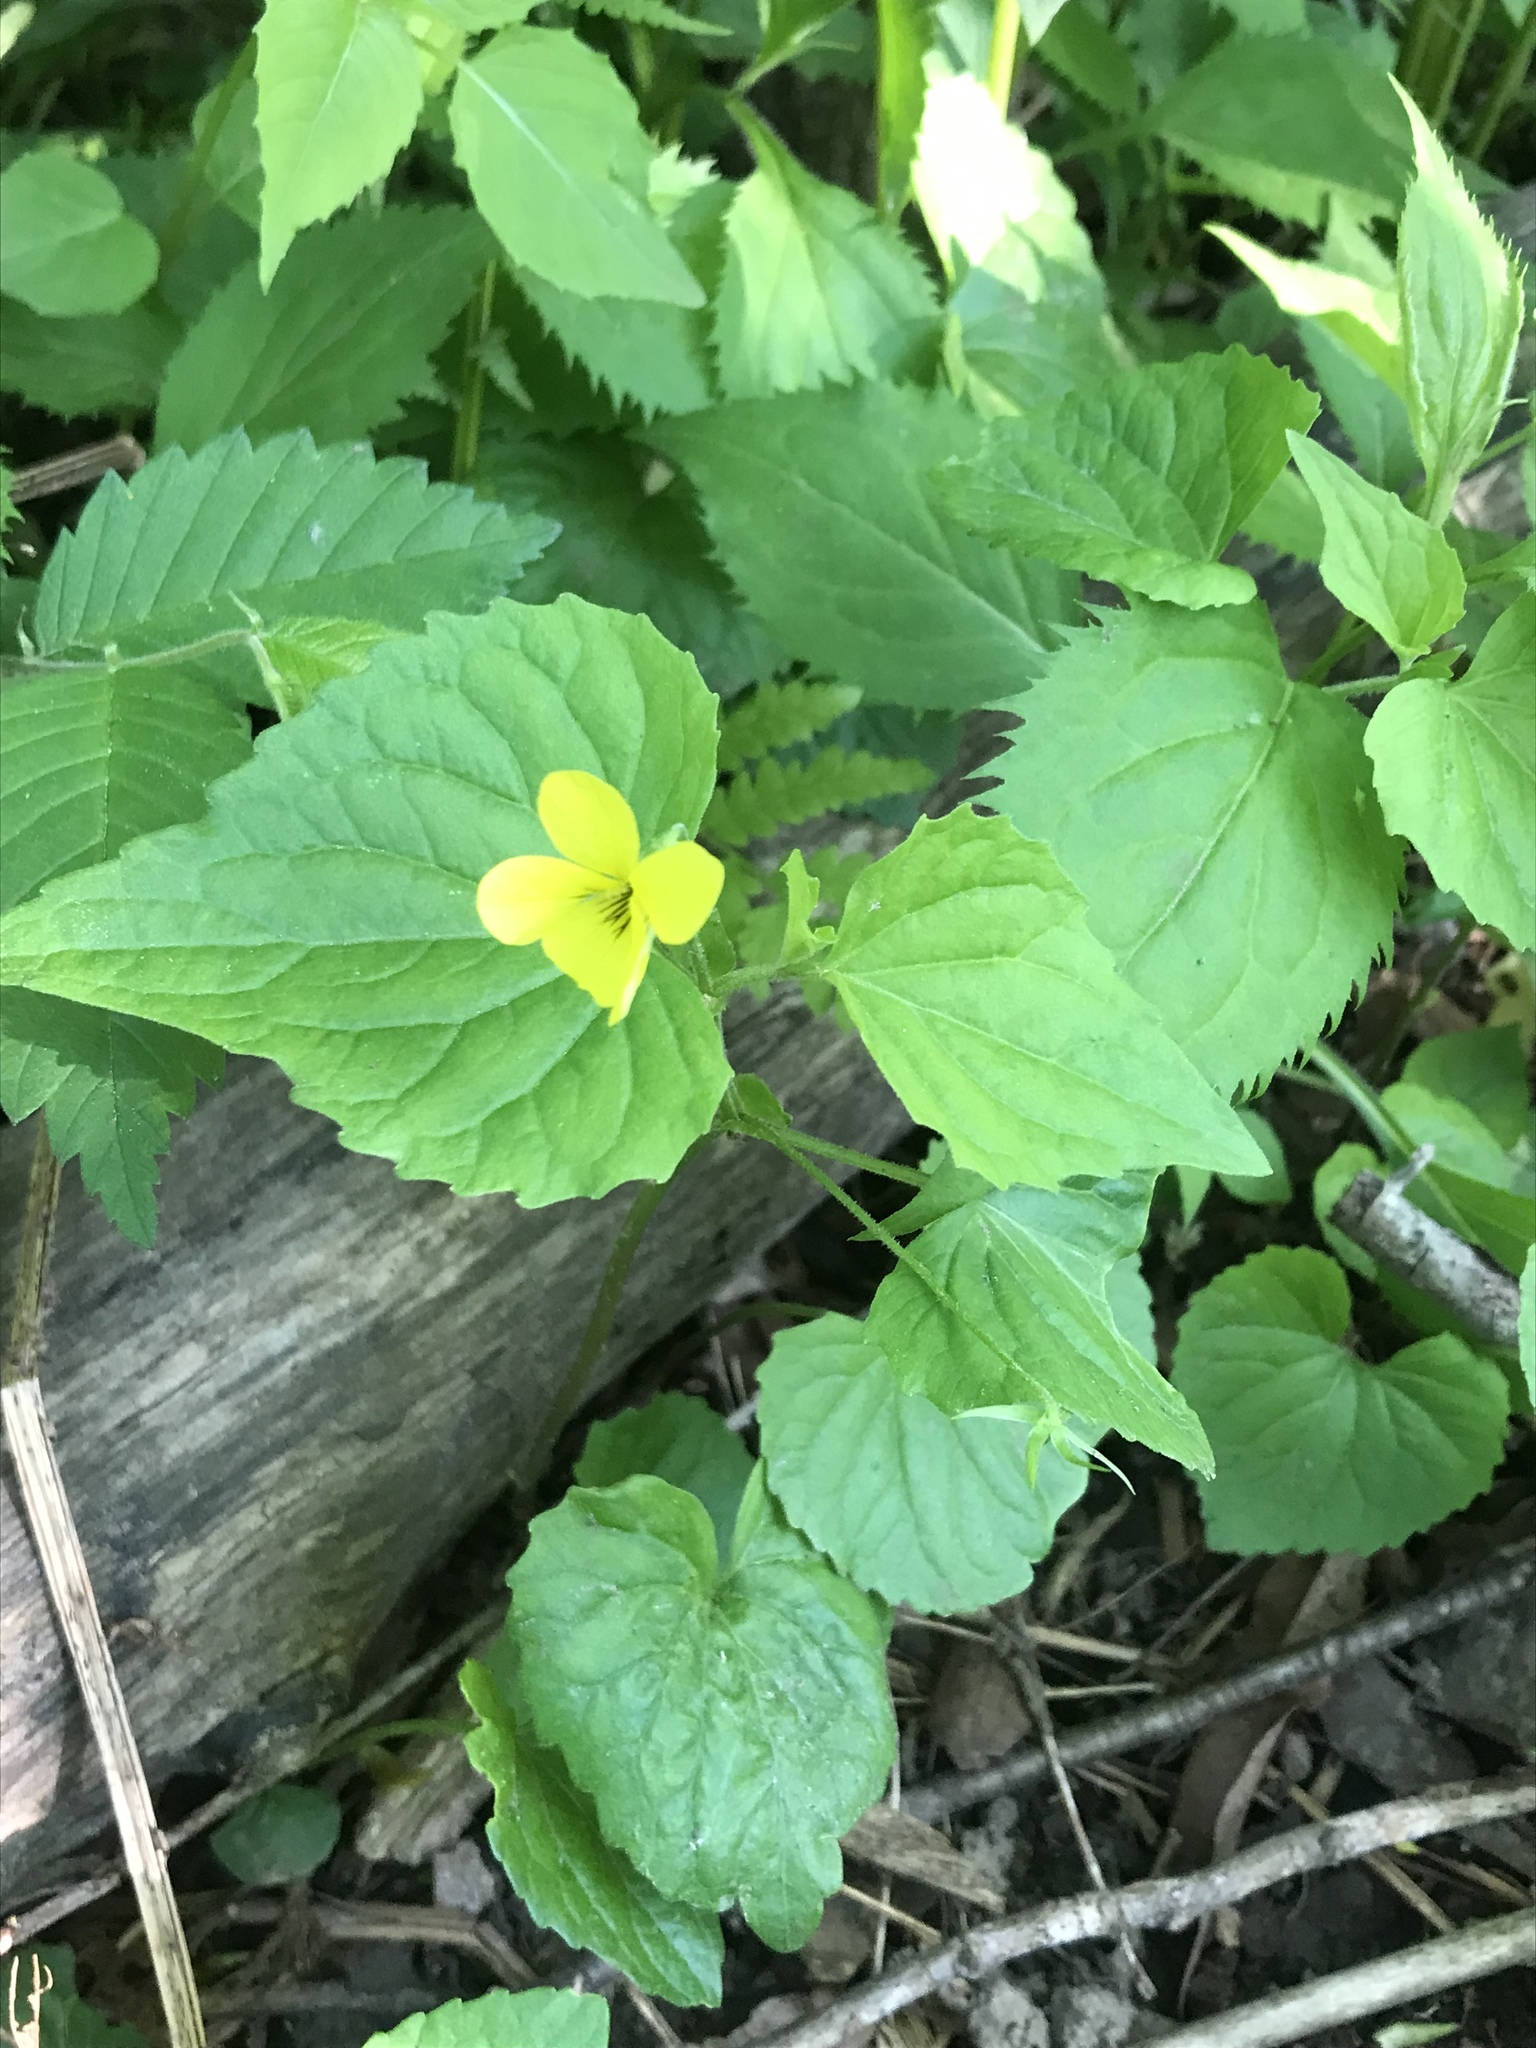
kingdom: Plantae
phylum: Tracheophyta
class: Magnoliopsida
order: Malpighiales
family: Violaceae
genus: Viola
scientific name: Viola eriocarpa
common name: Smooth yellow violet
